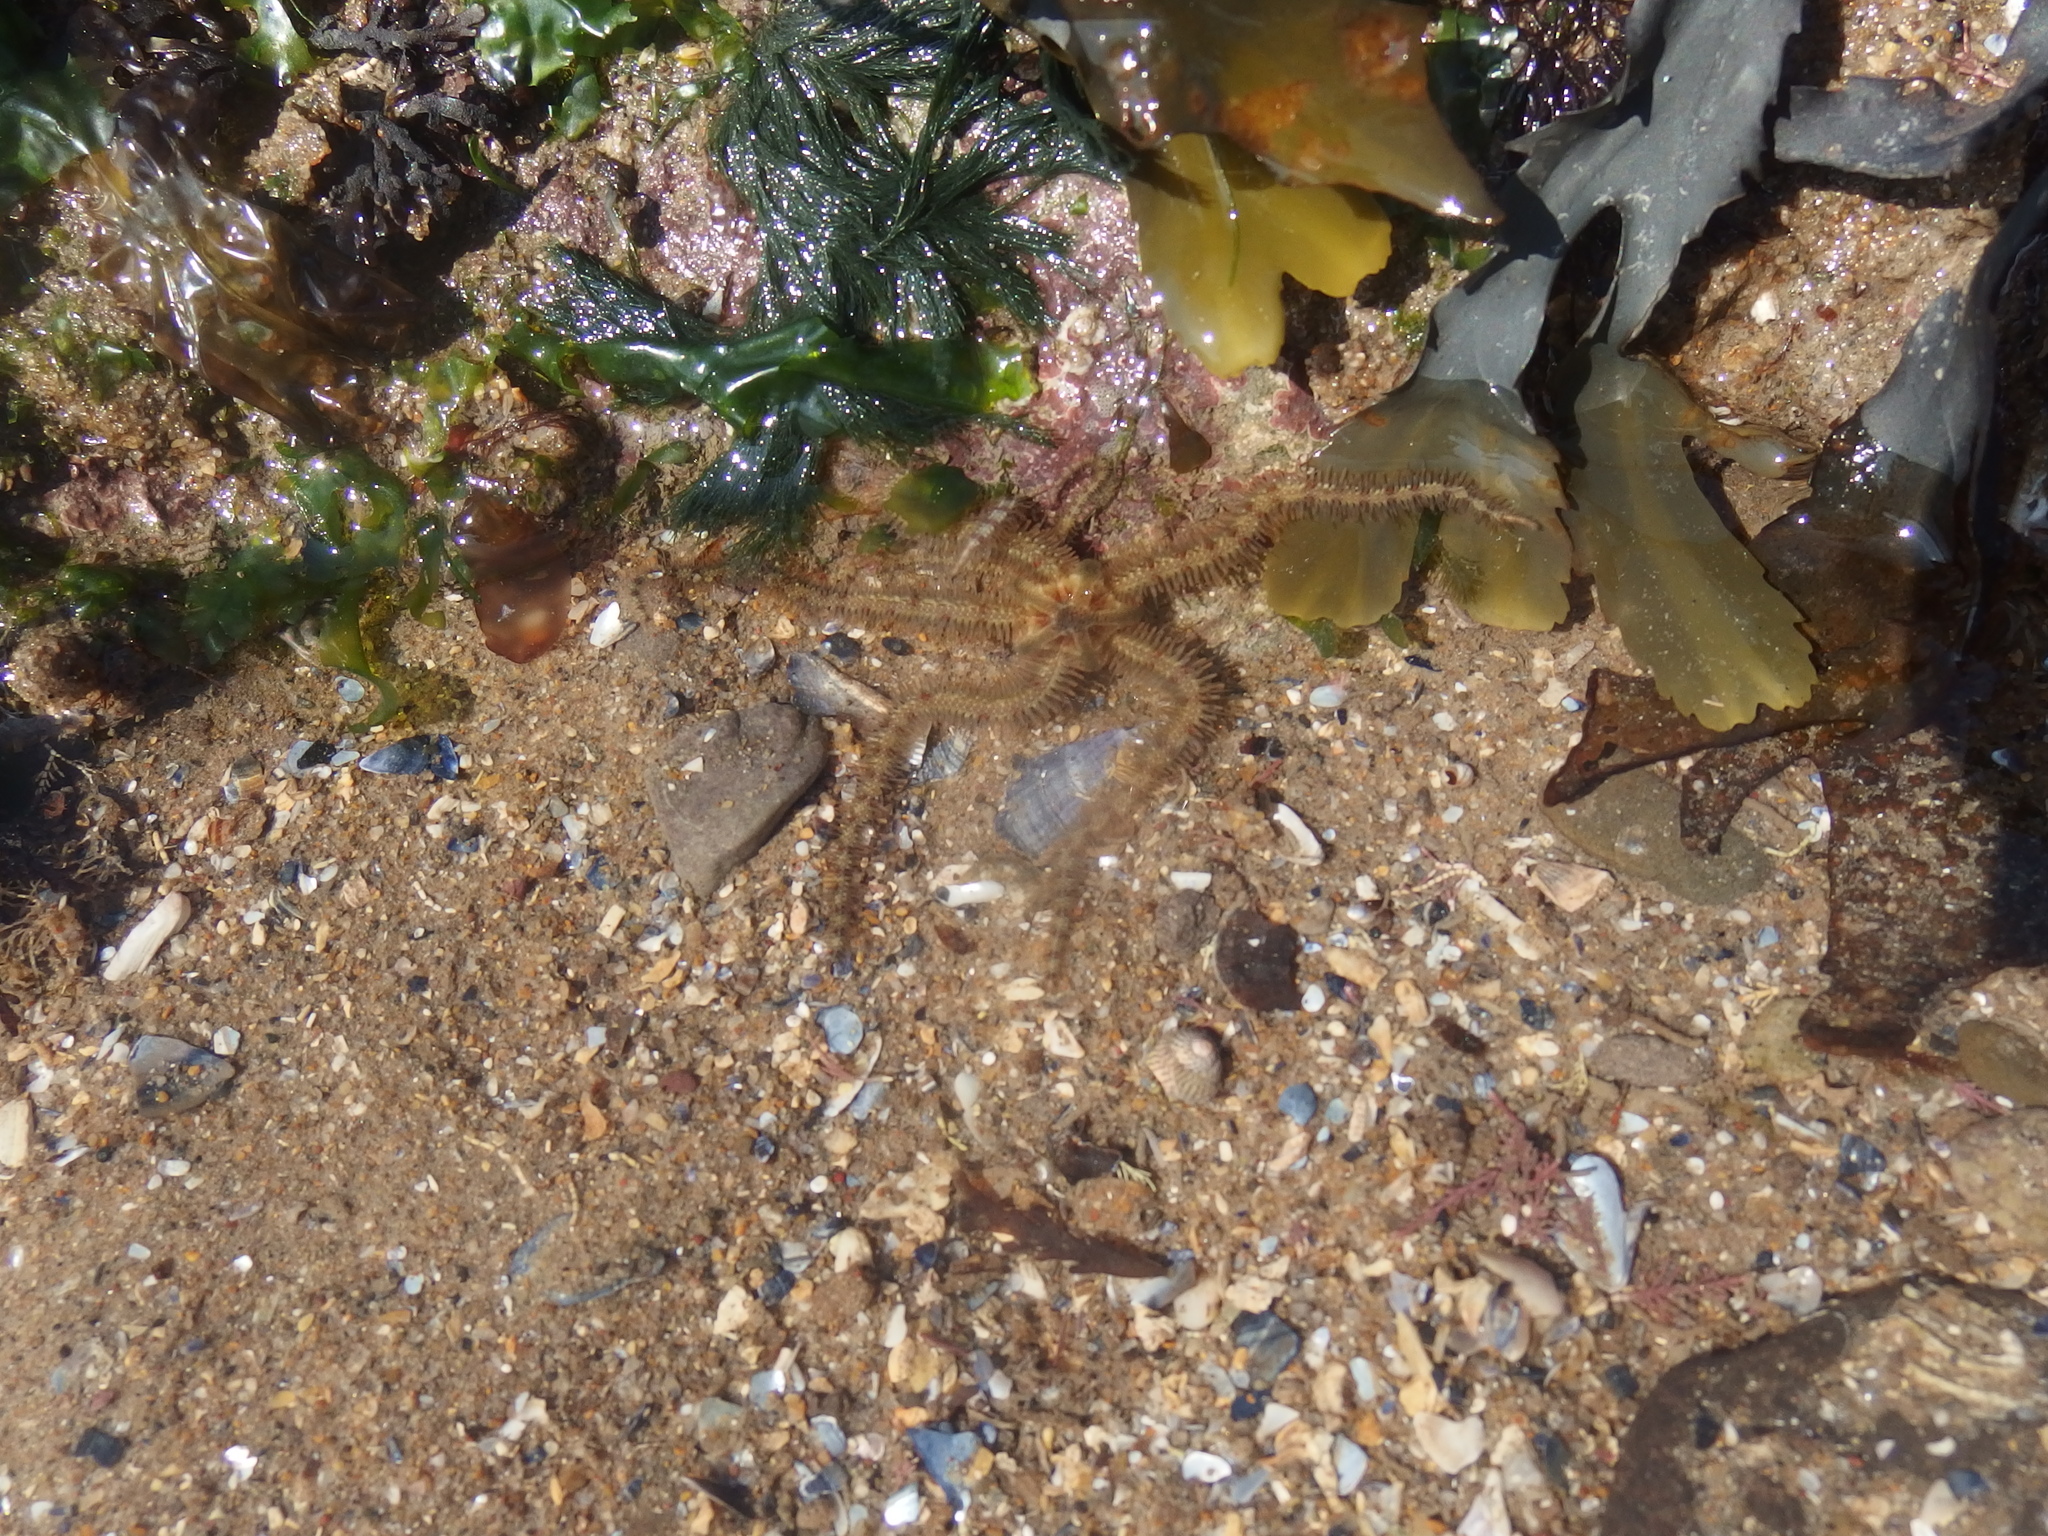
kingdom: Chromista
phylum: Ochrophyta
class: Phaeophyceae
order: Fucales
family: Fucaceae
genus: Fucus
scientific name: Fucus serratus
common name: Toothed wrack
